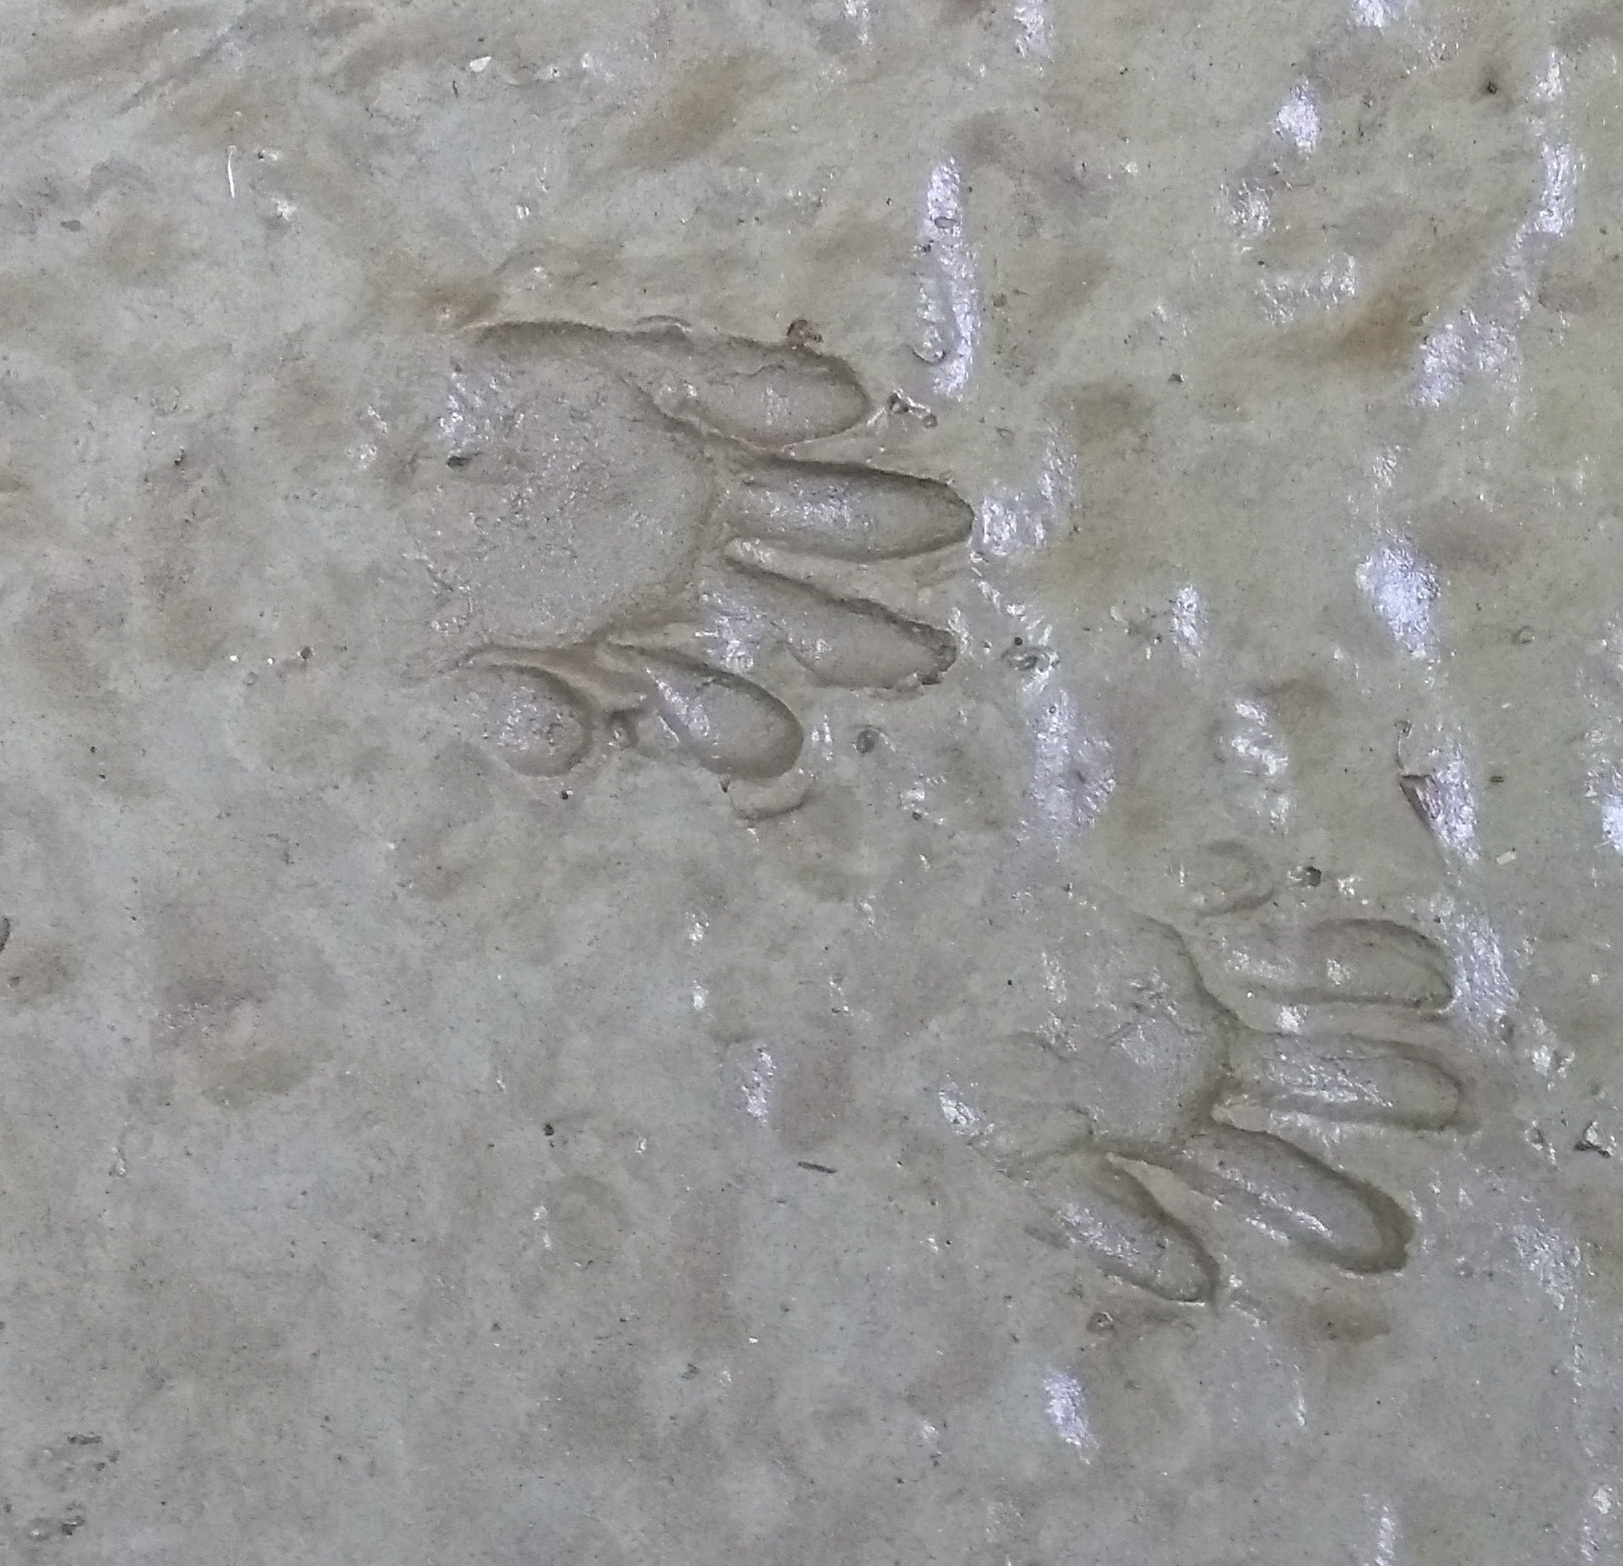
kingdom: Animalia
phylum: Chordata
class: Mammalia
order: Carnivora
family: Procyonidae
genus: Procyon
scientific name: Procyon lotor
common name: Raccoon
